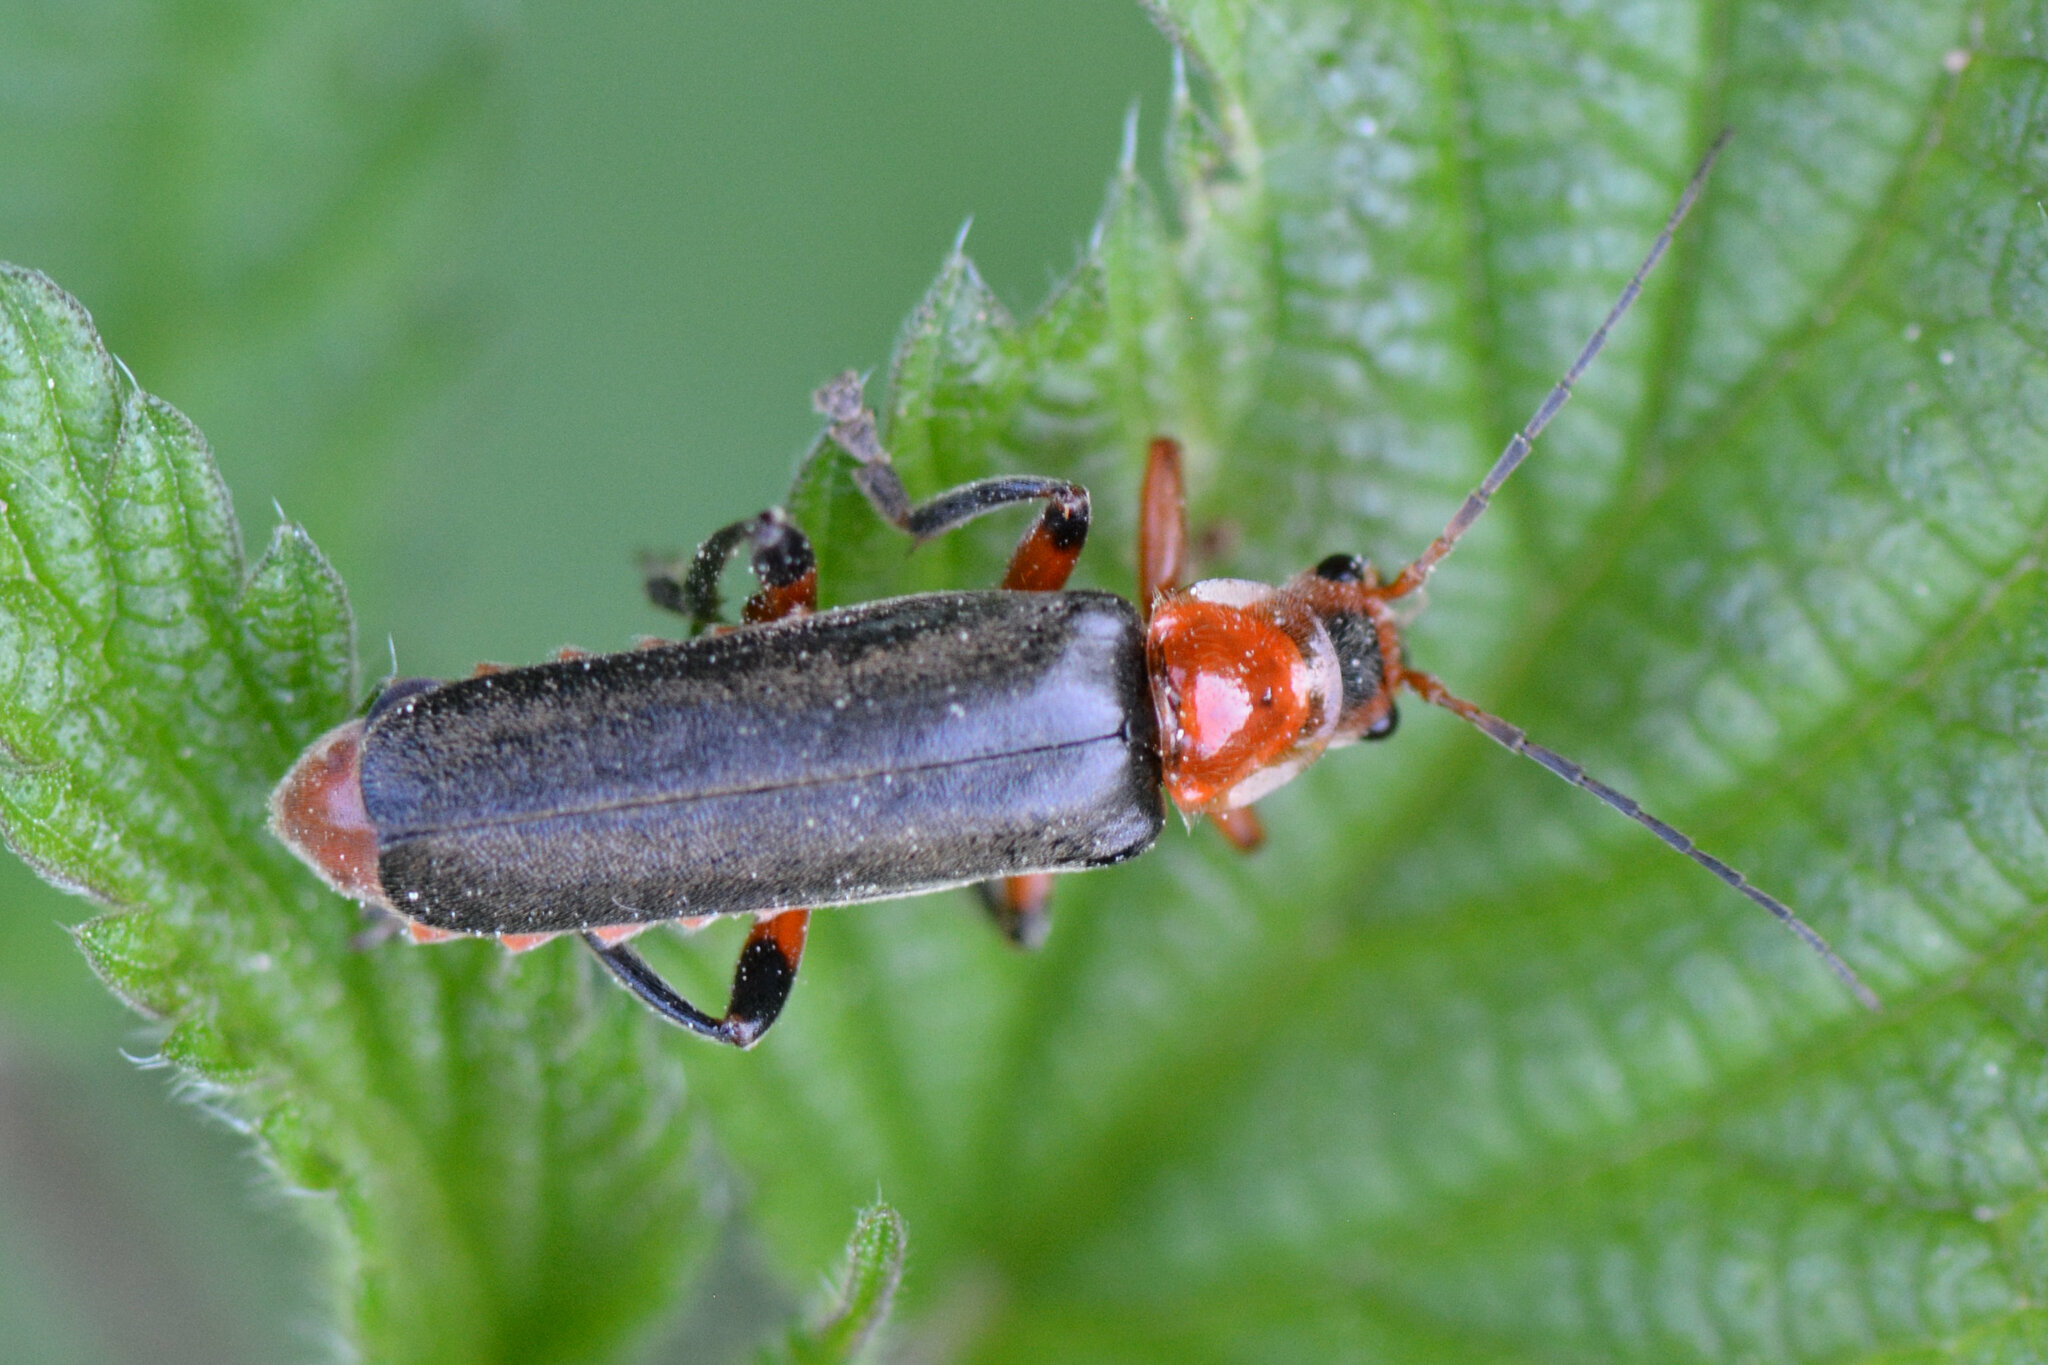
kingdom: Animalia
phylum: Arthropoda
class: Insecta
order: Coleoptera
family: Cantharidae
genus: Cantharis
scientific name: Cantharis livida
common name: Livid soldier beetle
